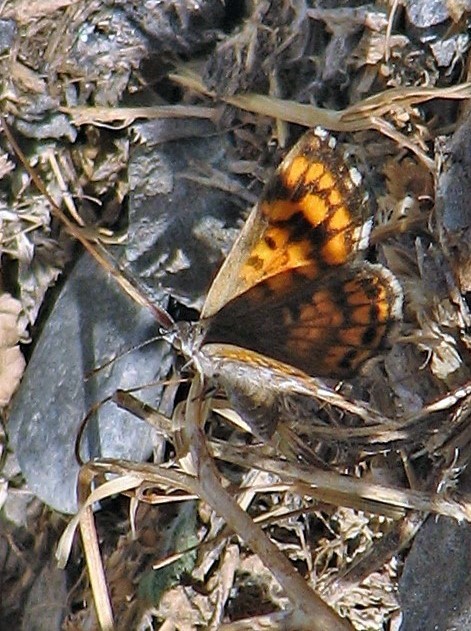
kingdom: Animalia
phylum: Arthropoda
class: Insecta
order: Lepidoptera
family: Lycaenidae
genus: Aricoris
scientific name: Aricoris chilensis
